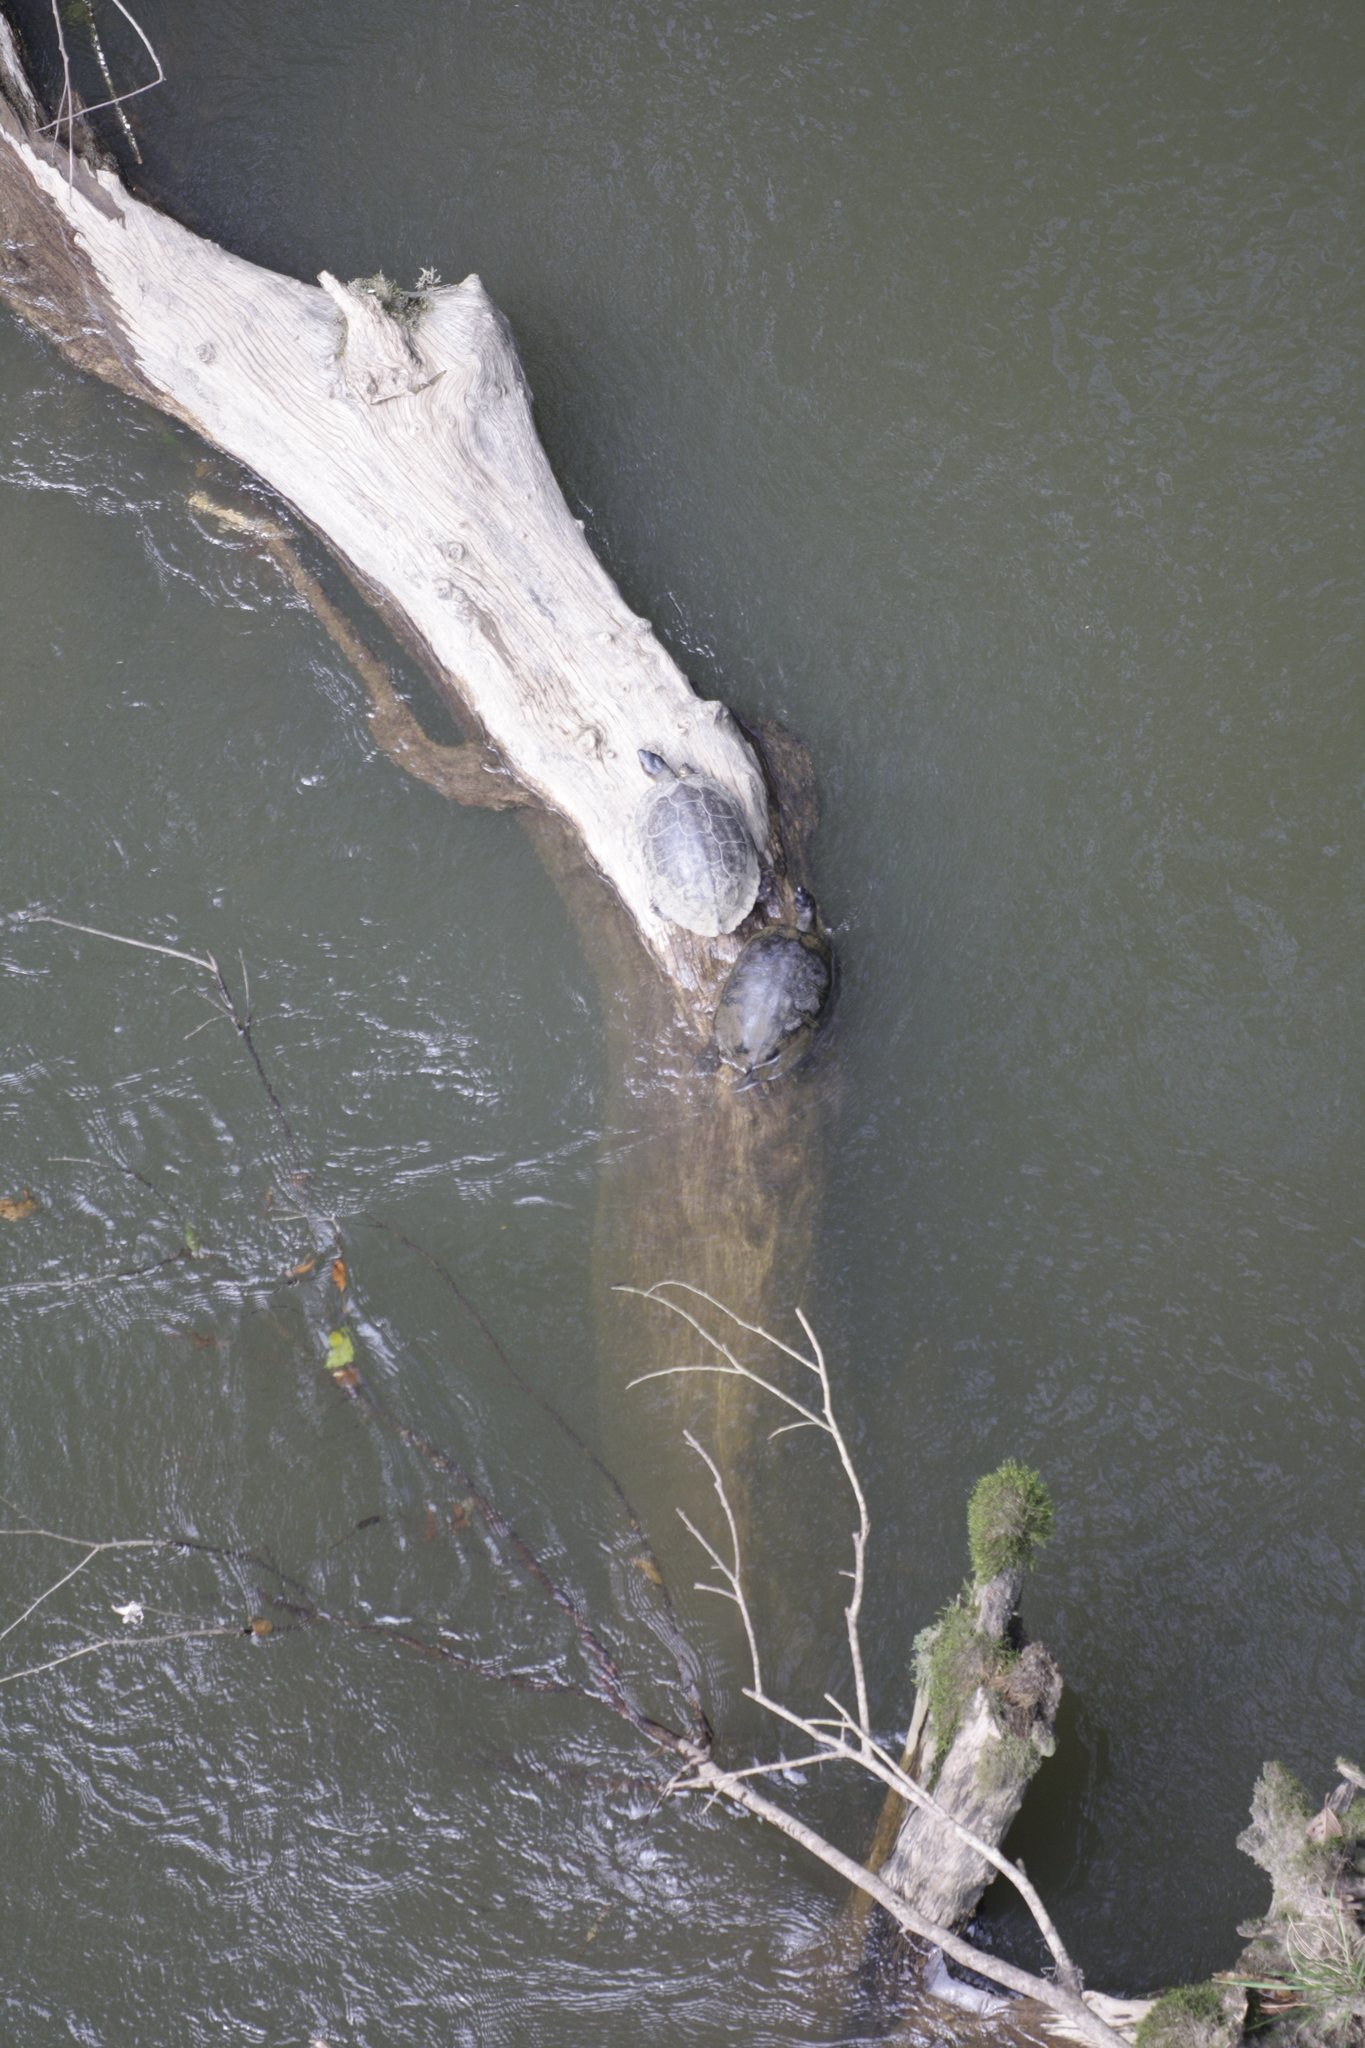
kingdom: Animalia
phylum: Chordata
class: Testudines
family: Geoemydidae
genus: Rhinoclemmys
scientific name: Rhinoclemmys funerea
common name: Black wood turtle
